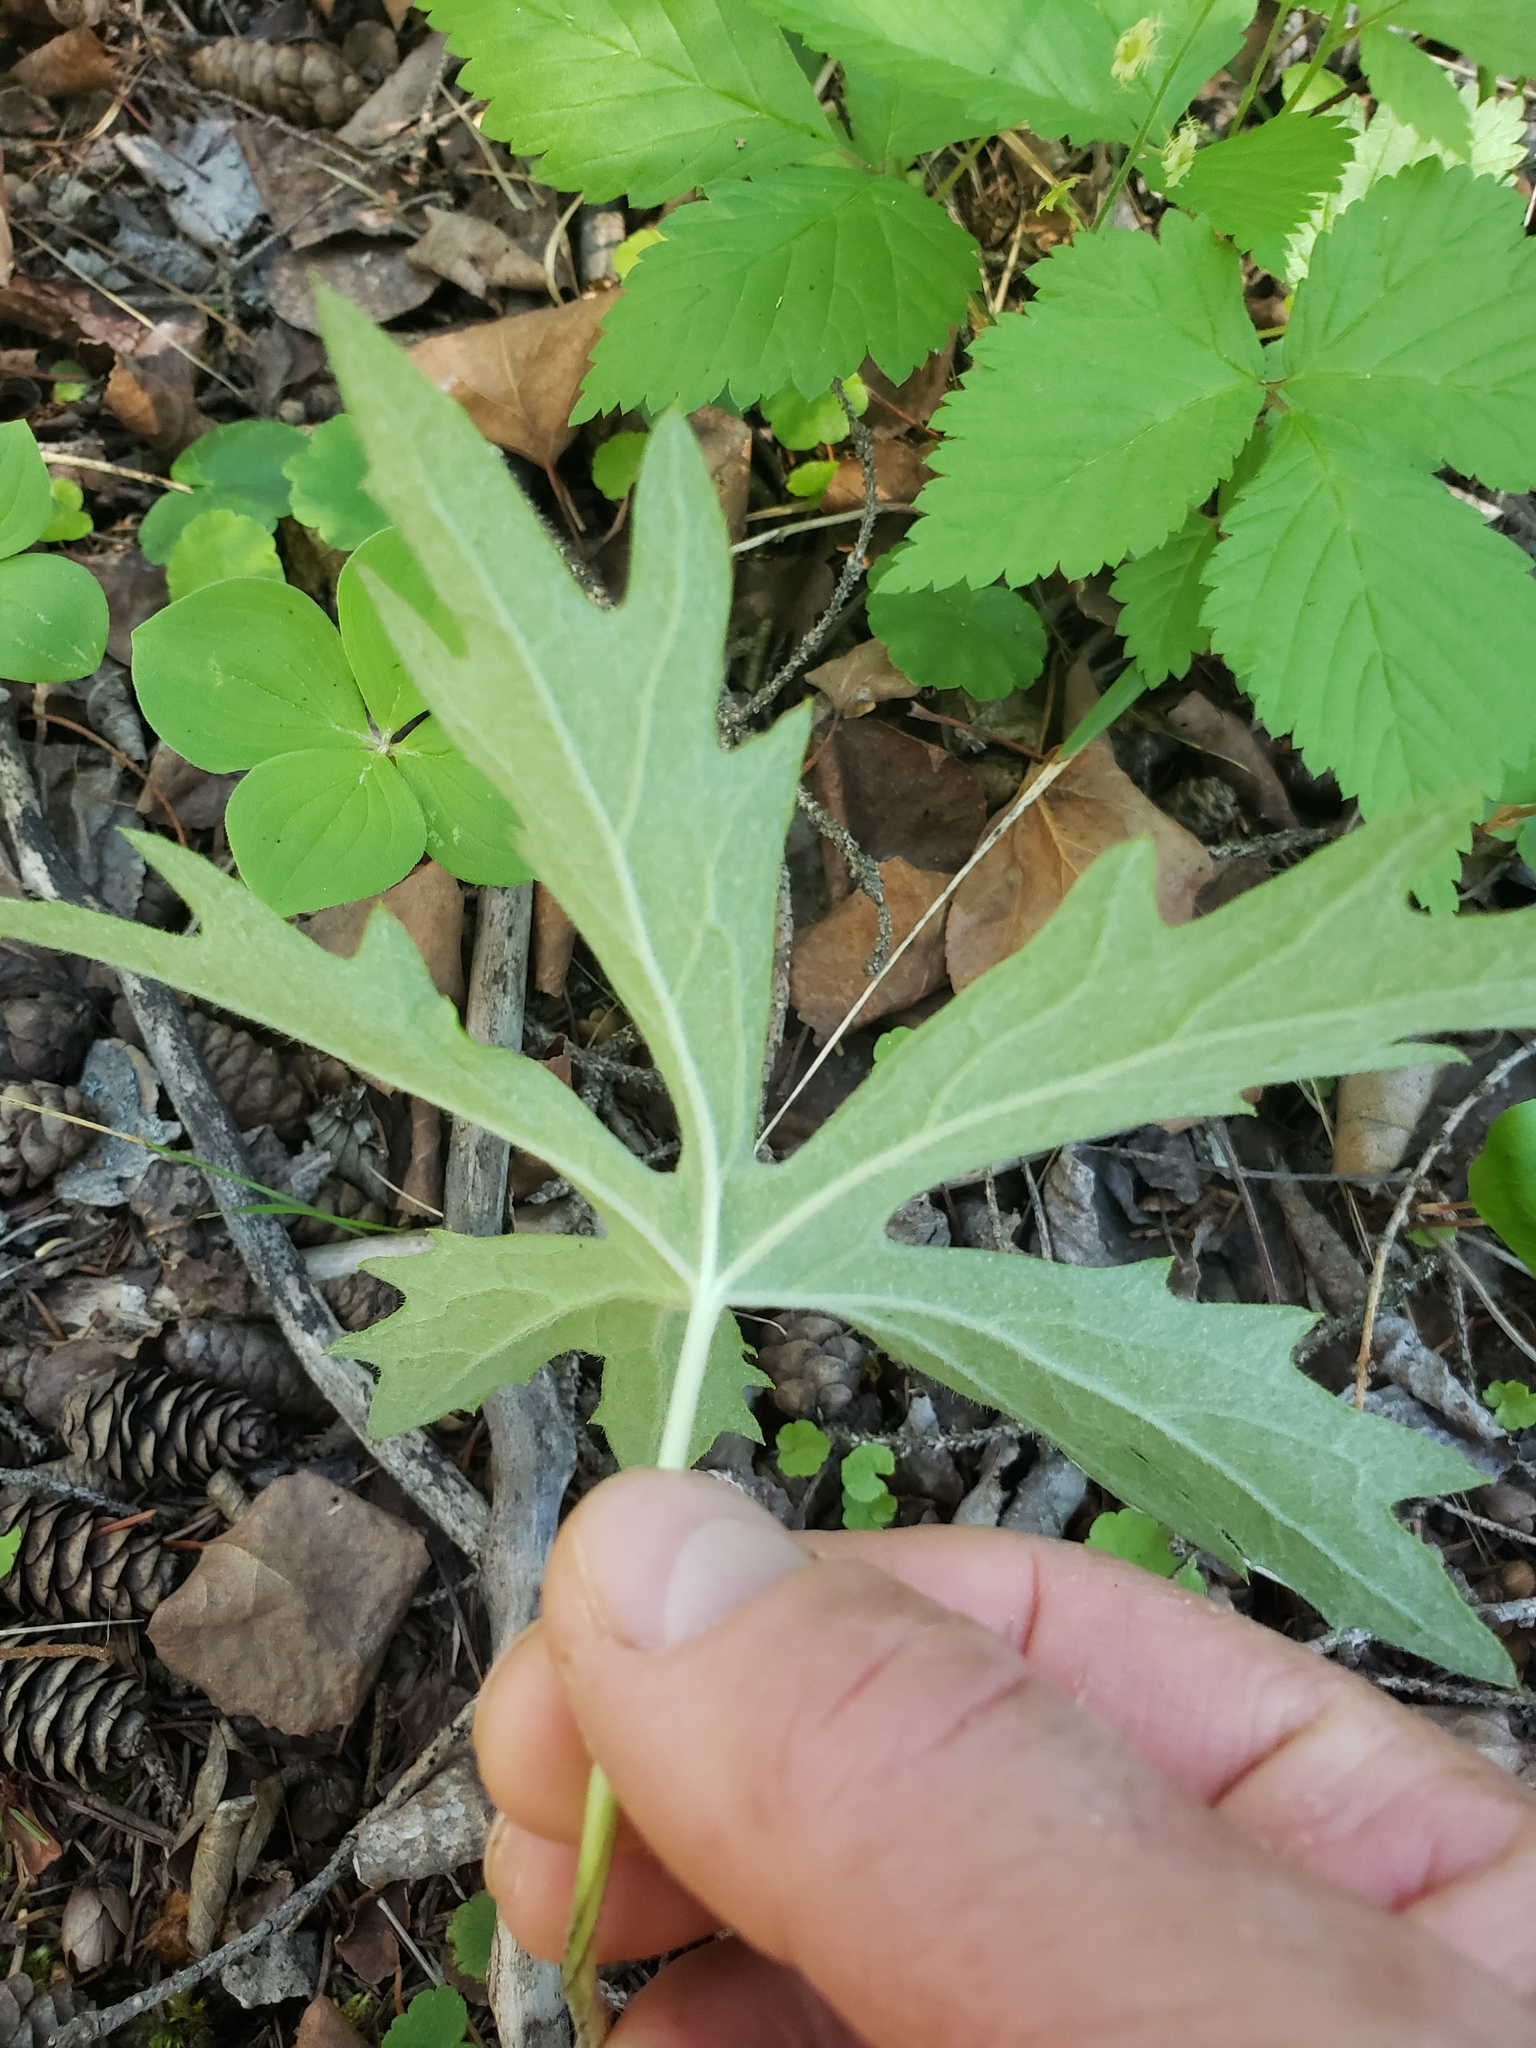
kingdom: Plantae
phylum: Tracheophyta
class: Magnoliopsida
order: Asterales
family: Asteraceae
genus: Petasites
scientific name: Petasites frigidus
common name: Arctic butterbur
